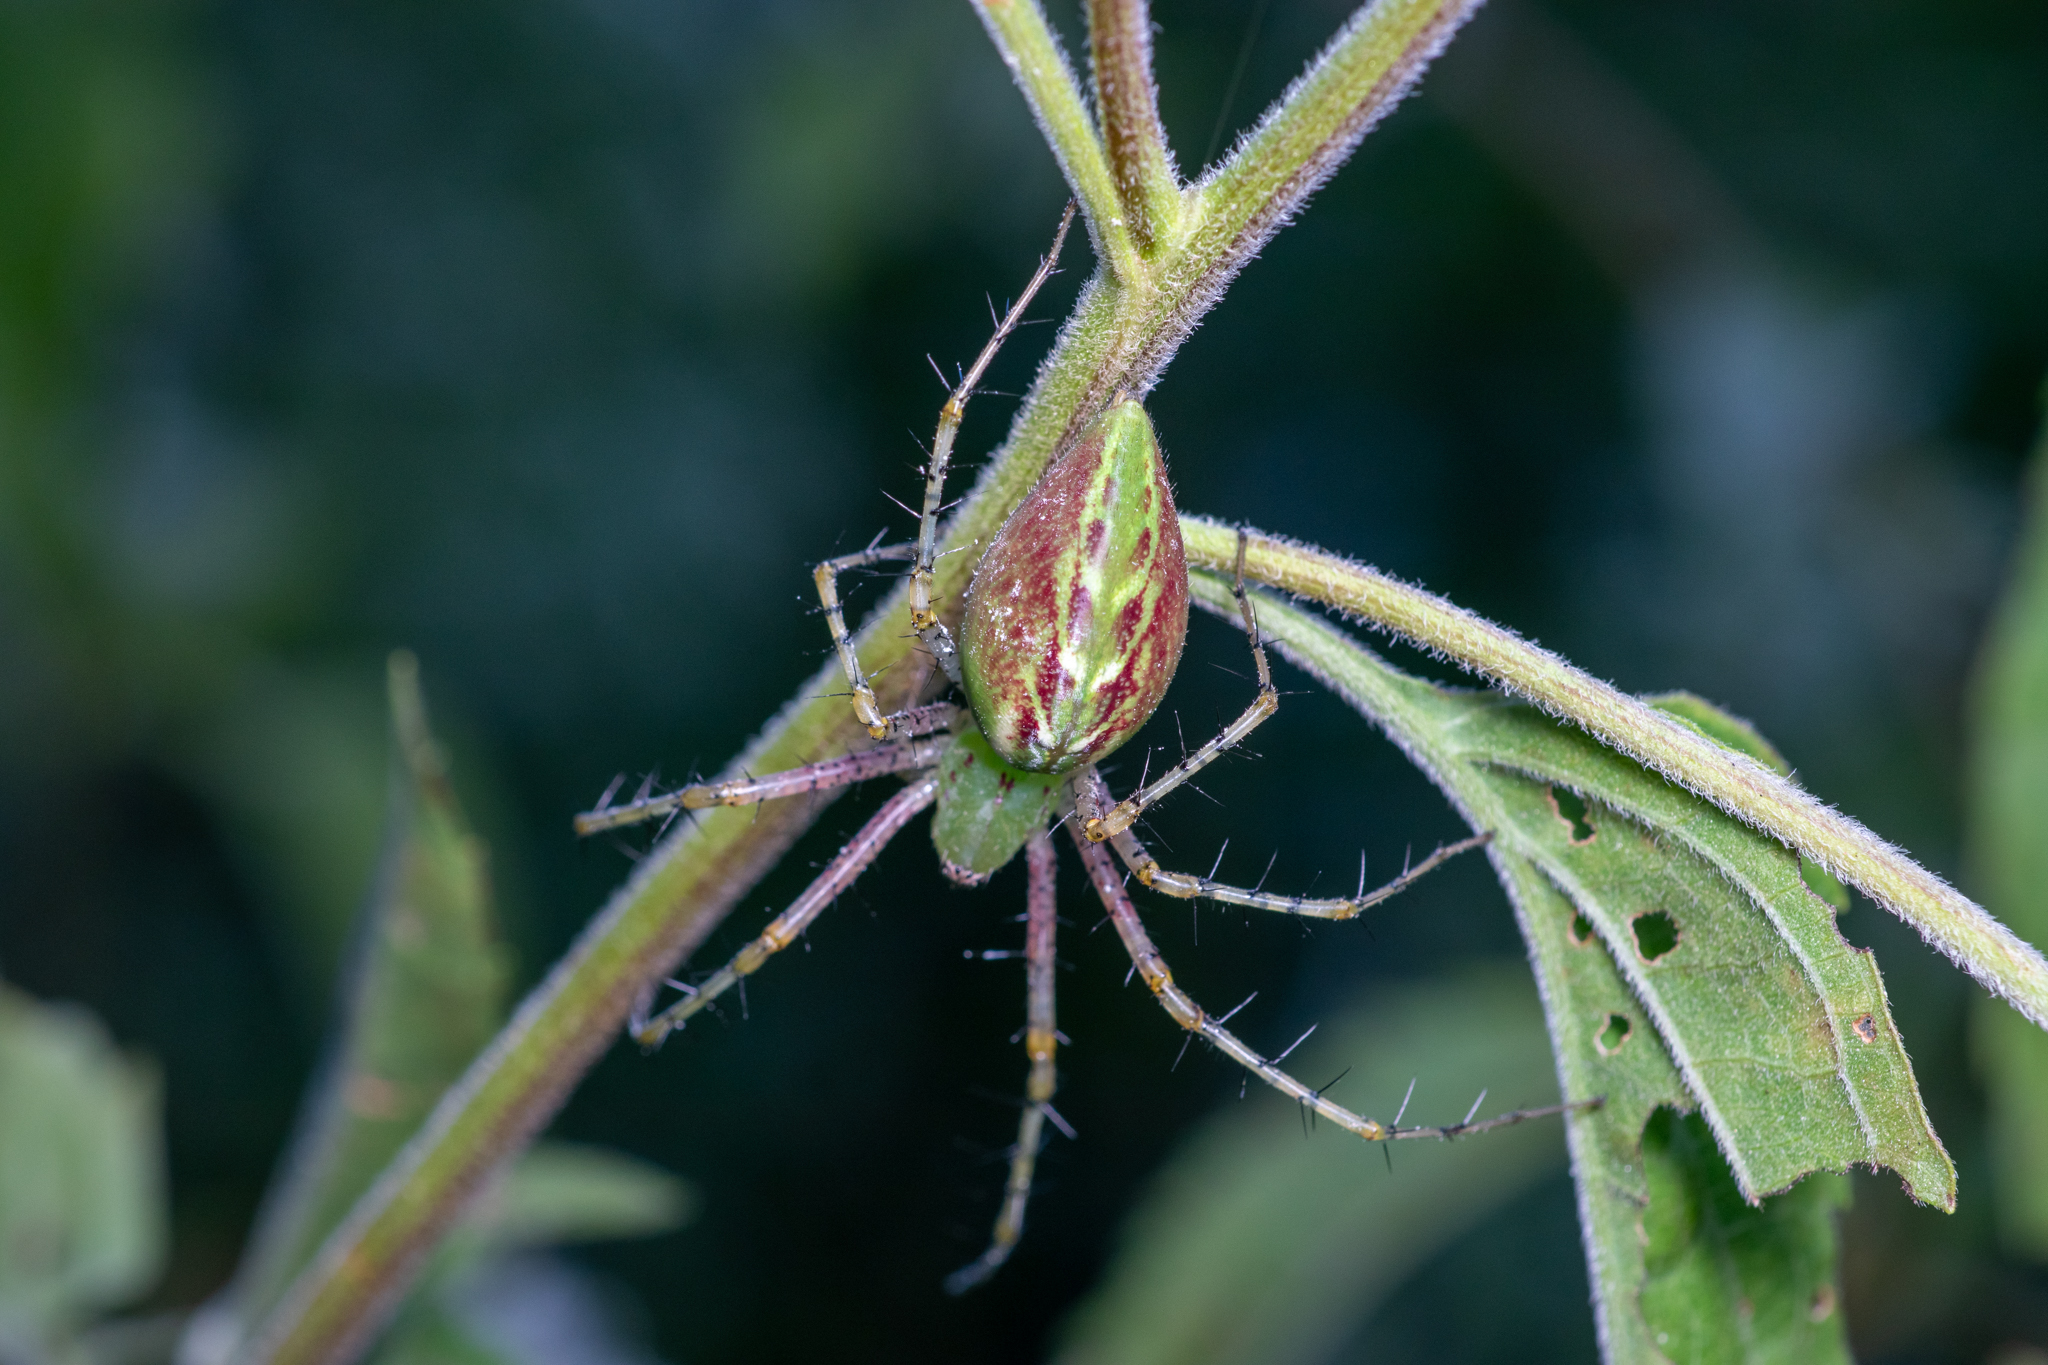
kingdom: Animalia
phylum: Arthropoda
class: Arachnida
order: Araneae
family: Oxyopidae
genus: Peucetia
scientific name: Peucetia viridans
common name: Lynx spiders
